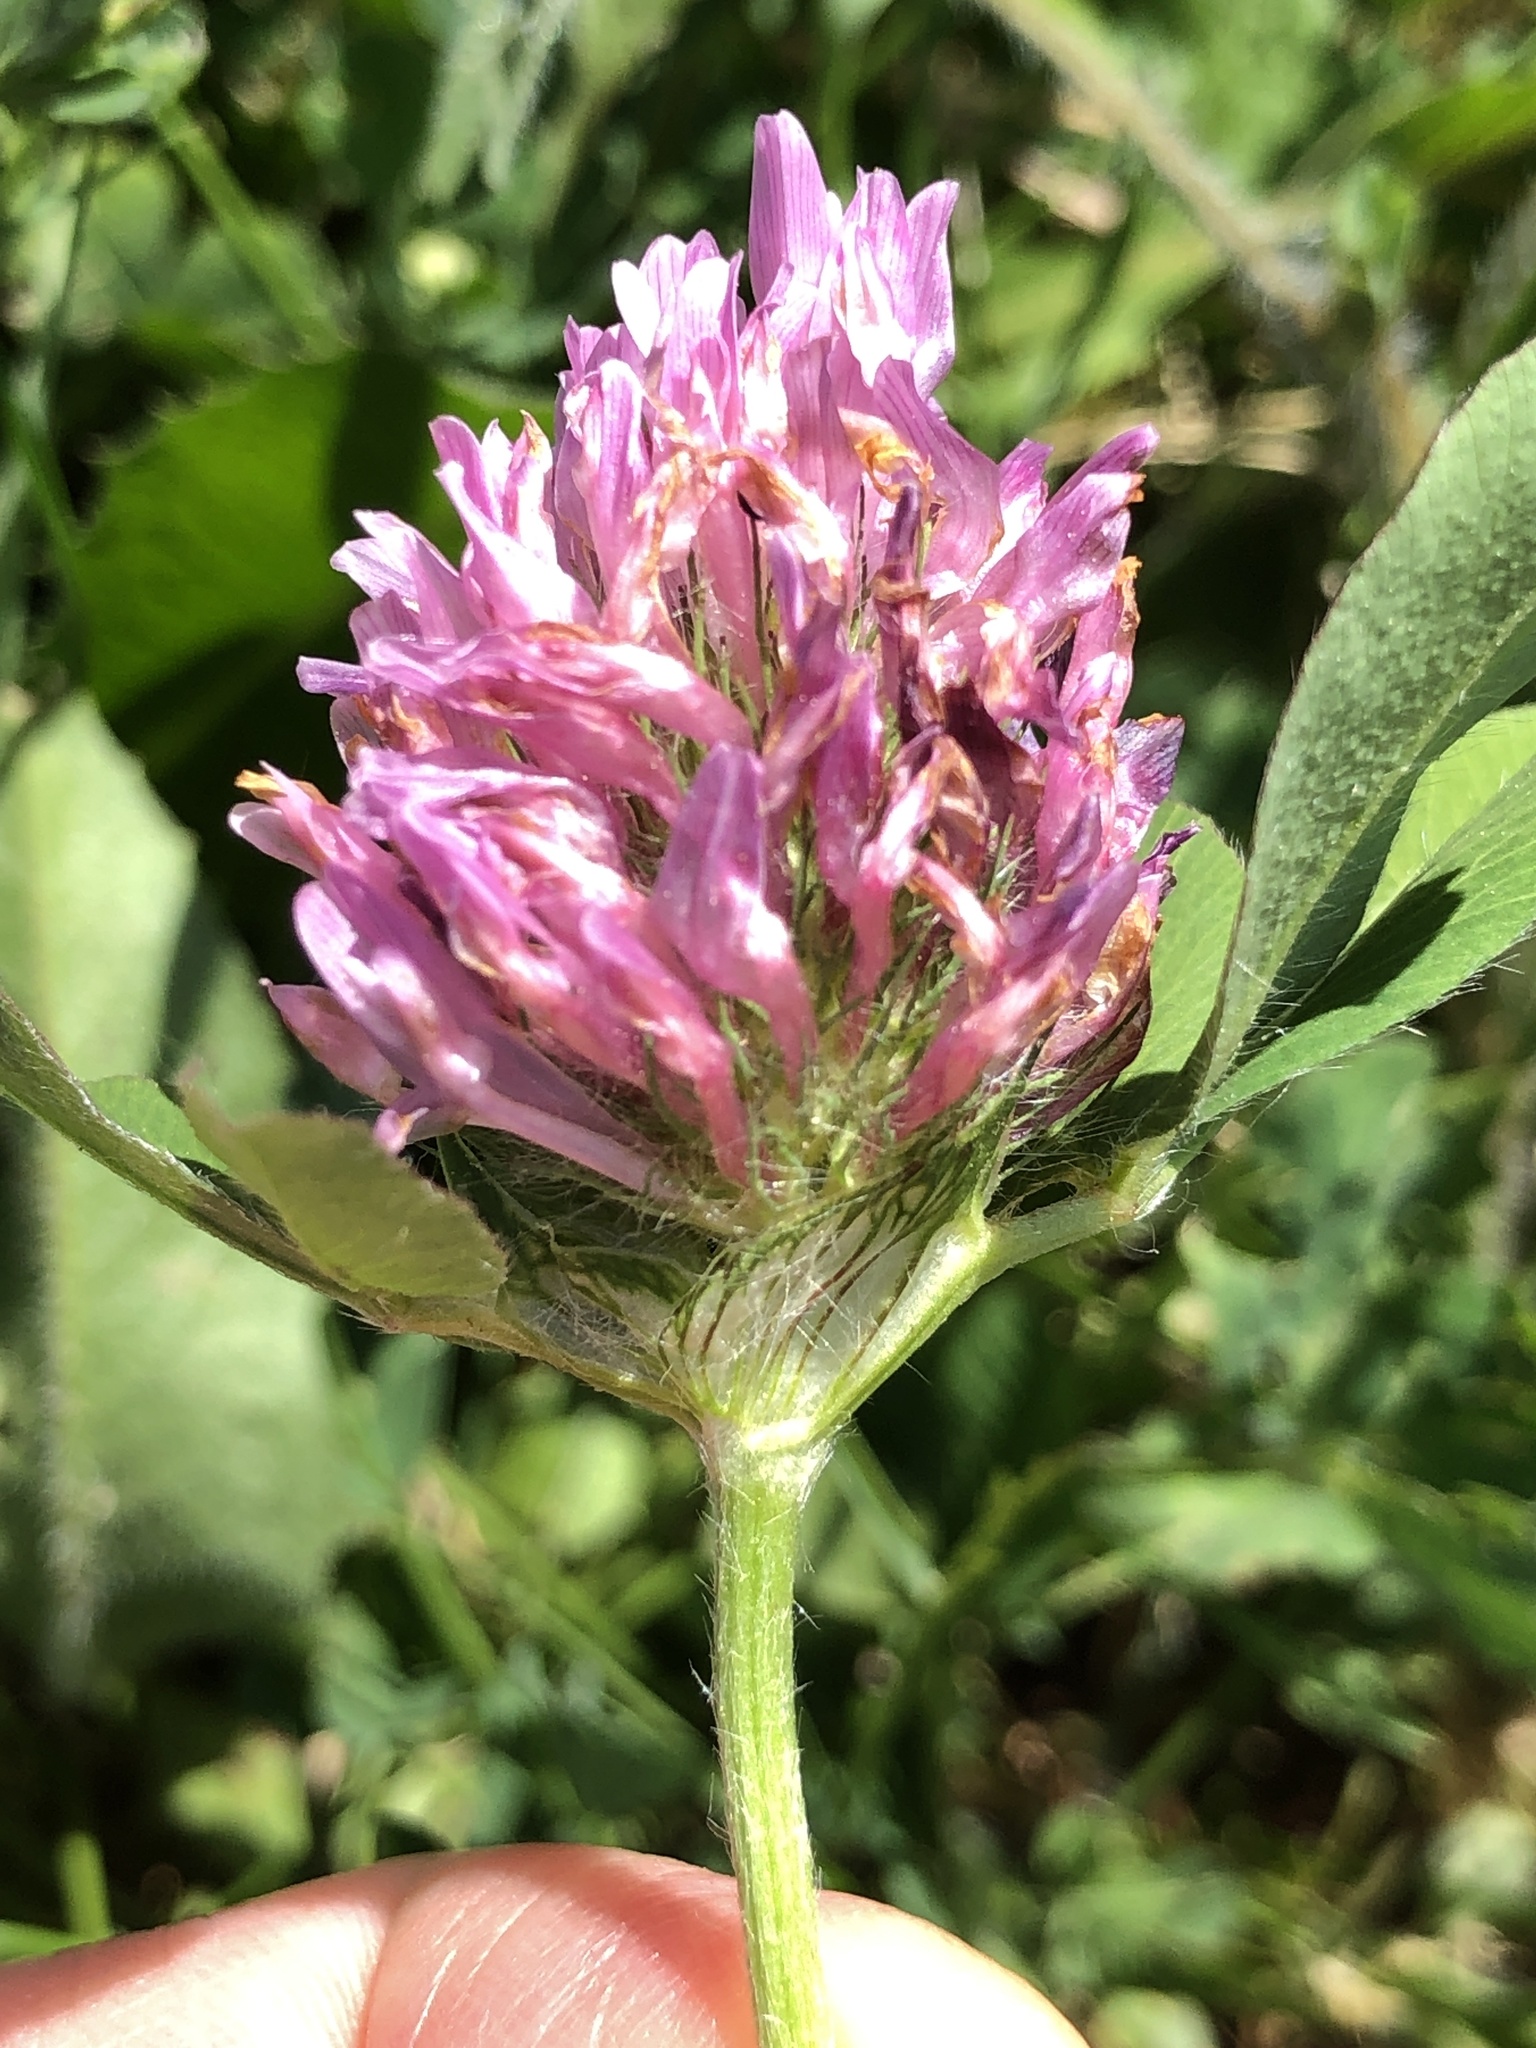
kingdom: Plantae
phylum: Tracheophyta
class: Magnoliopsida
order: Fabales
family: Fabaceae
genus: Trifolium
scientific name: Trifolium pratense
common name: Red clover
